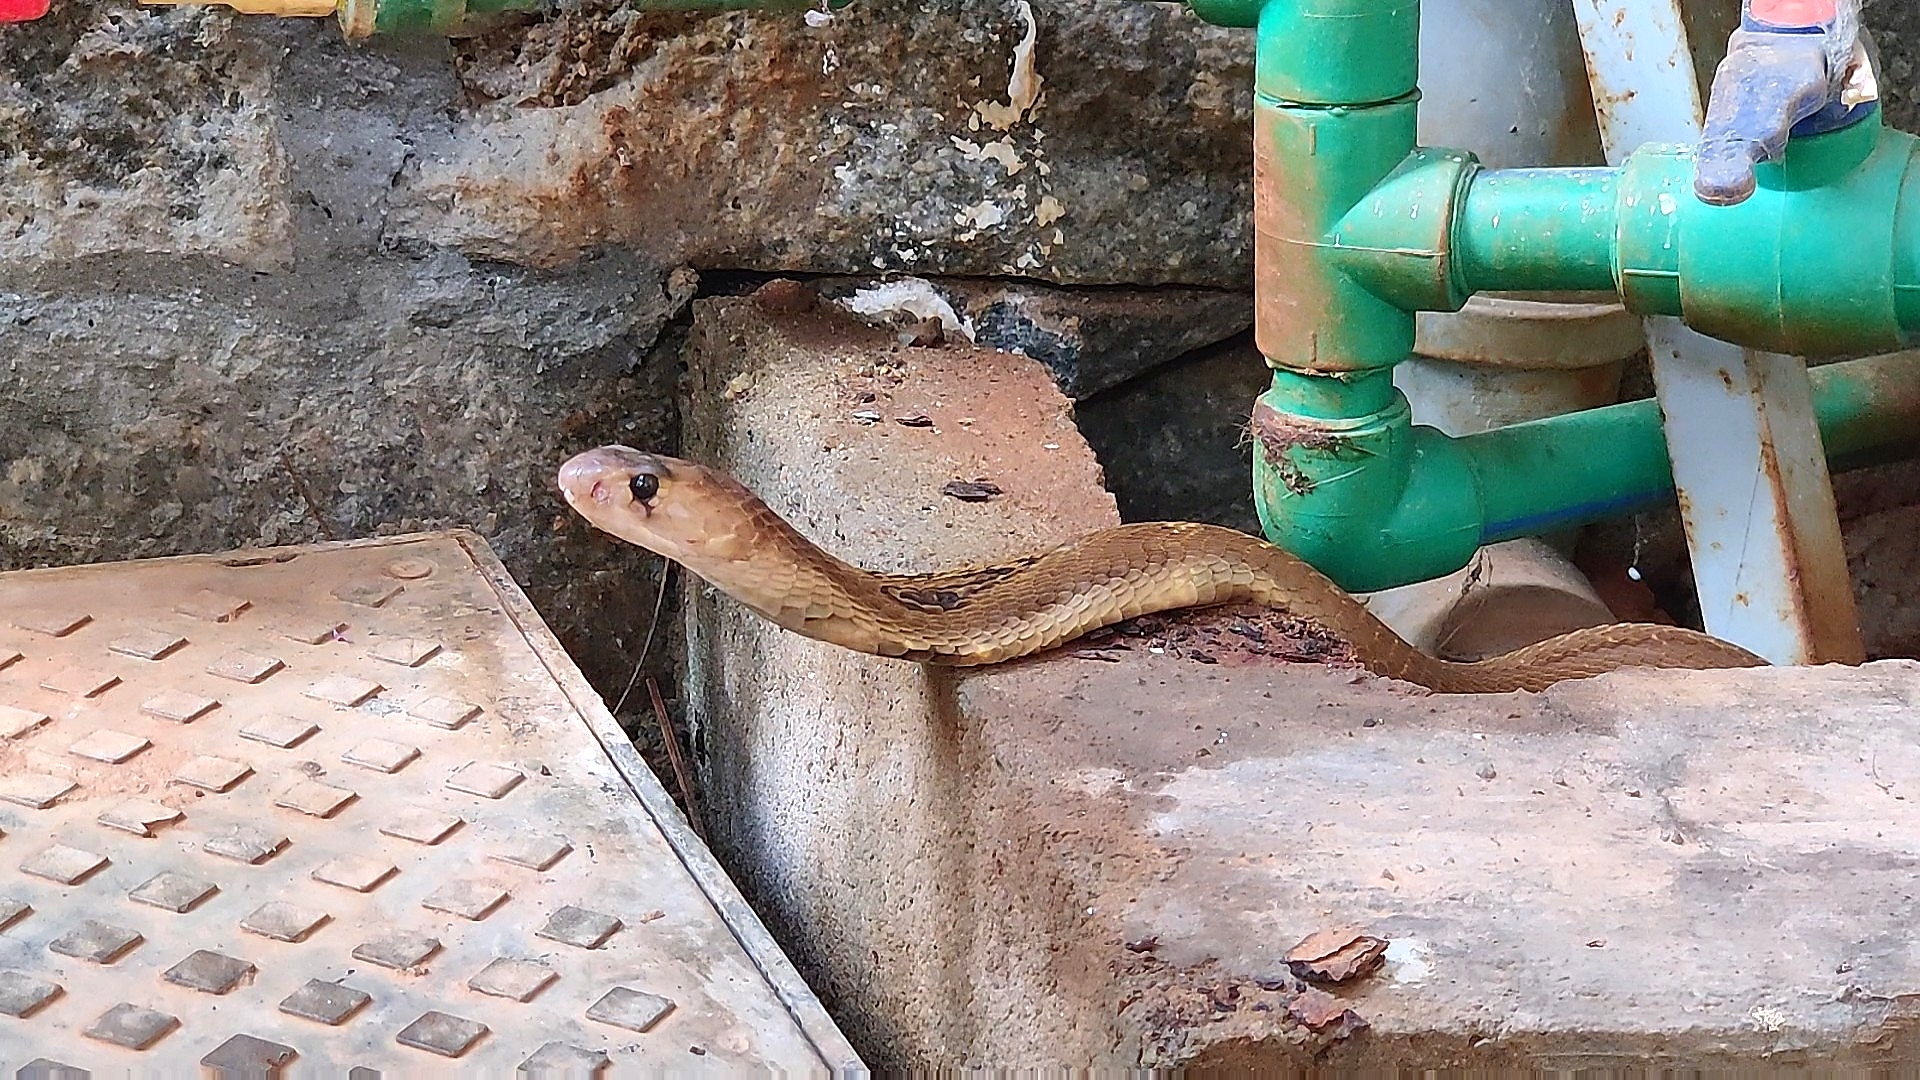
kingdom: Animalia
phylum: Chordata
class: Squamata
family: Elapidae
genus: Naja
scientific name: Naja naja
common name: Indian cobra
